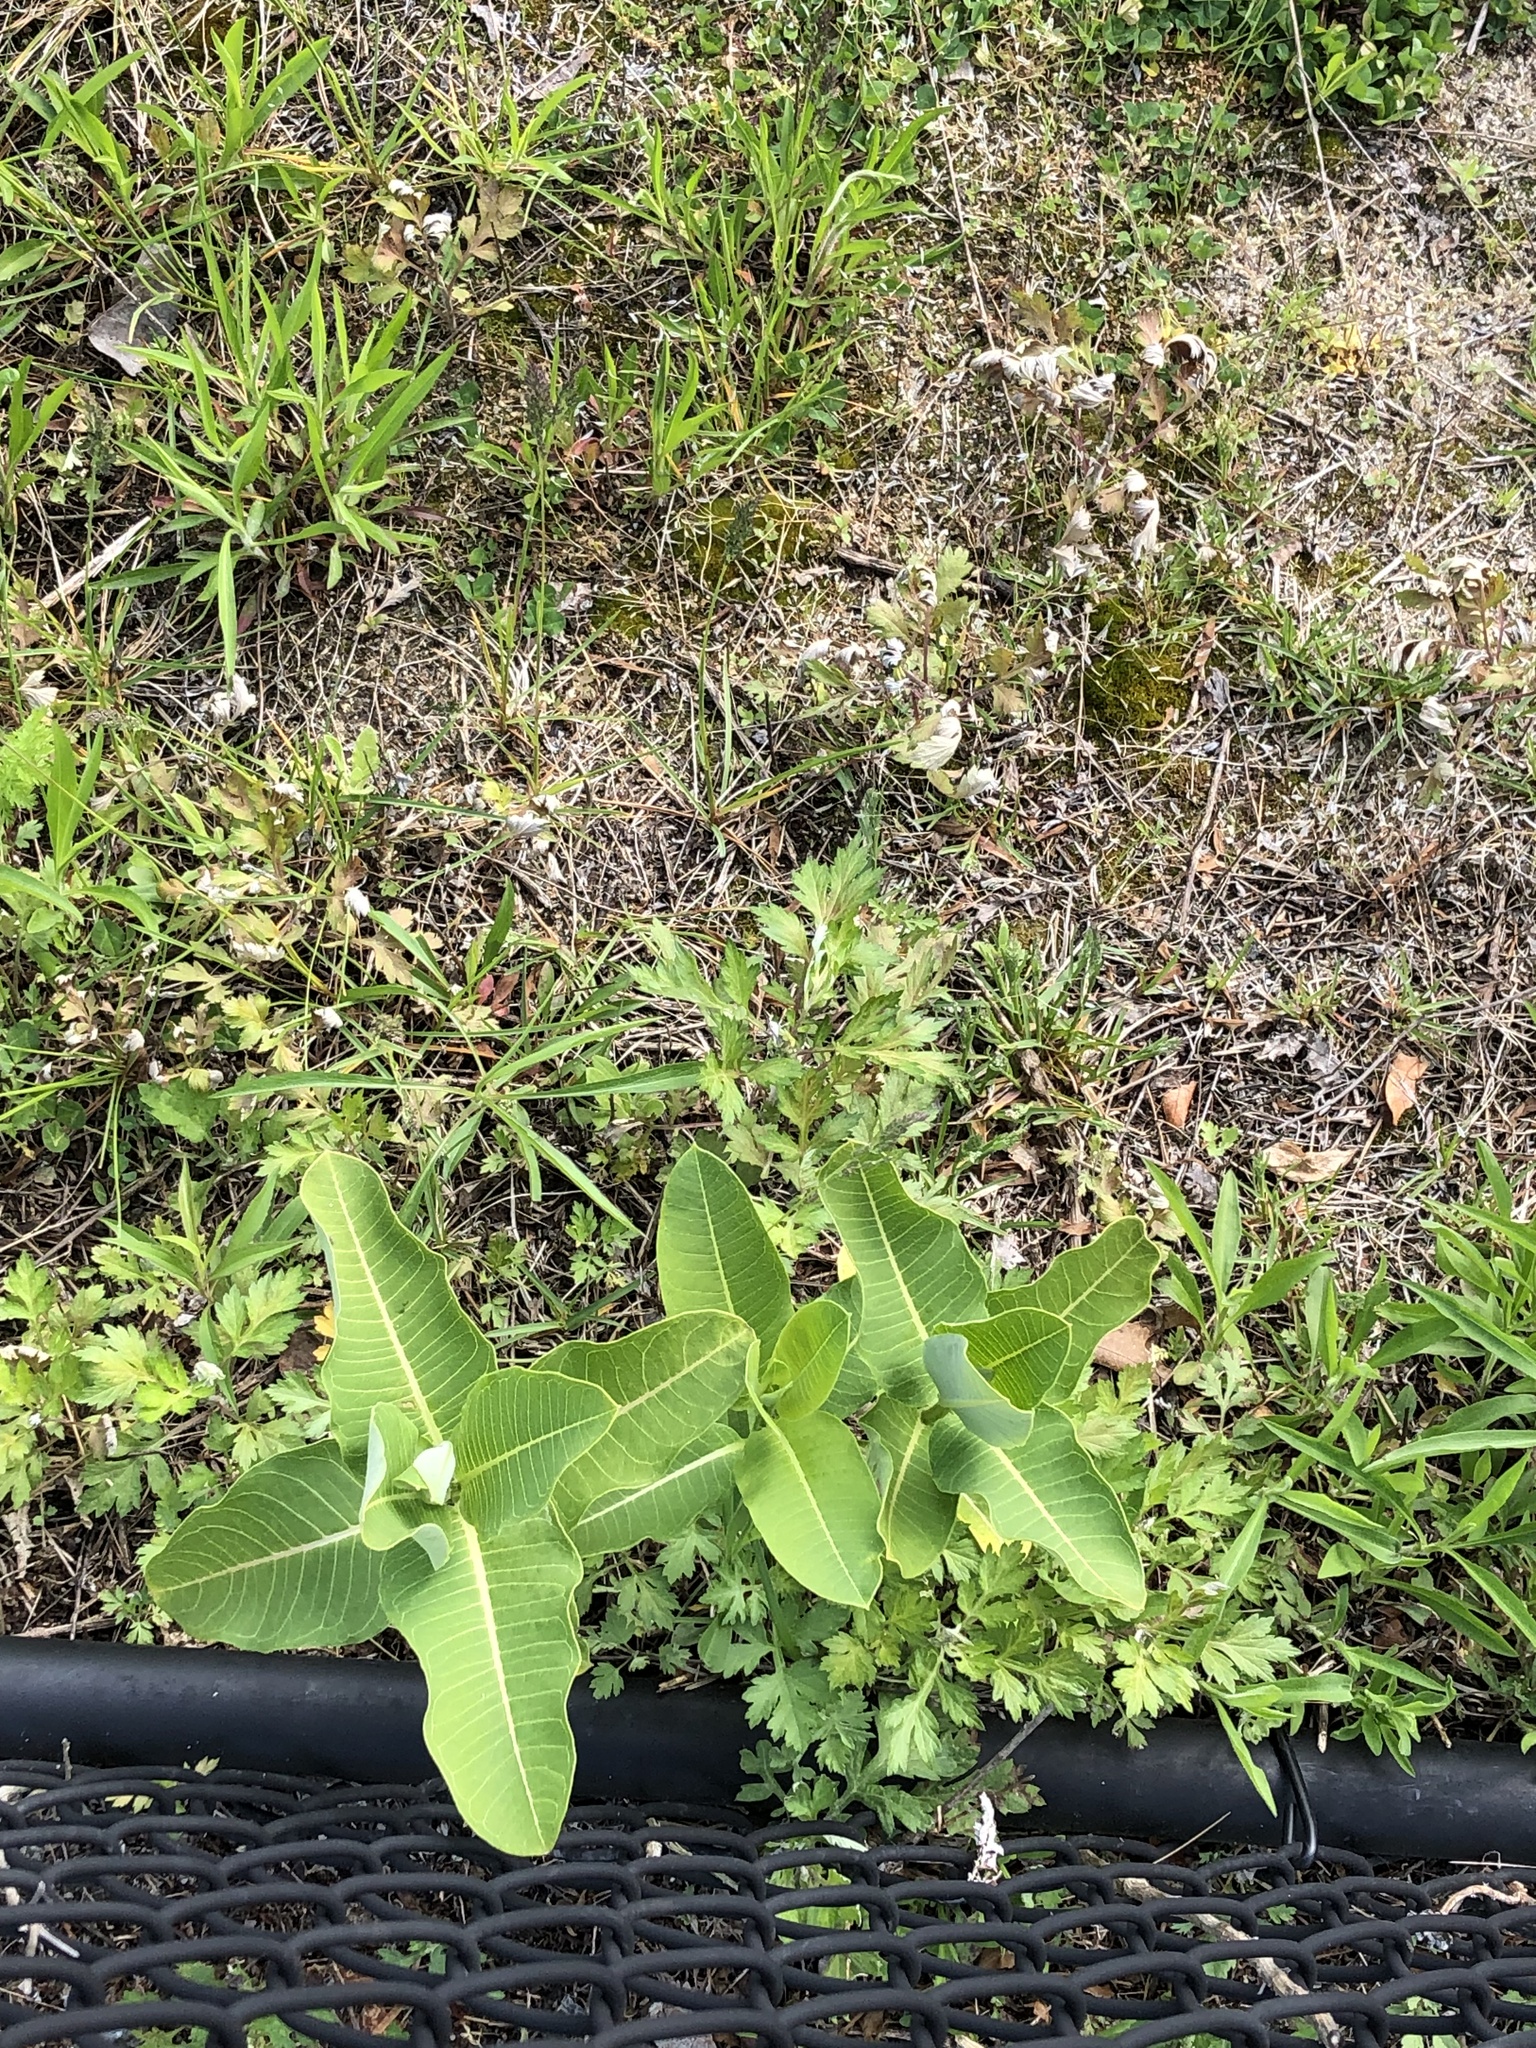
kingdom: Plantae
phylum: Tracheophyta
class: Magnoliopsida
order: Gentianales
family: Apocynaceae
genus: Asclepias
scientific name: Asclepias syriaca
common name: Common milkweed
